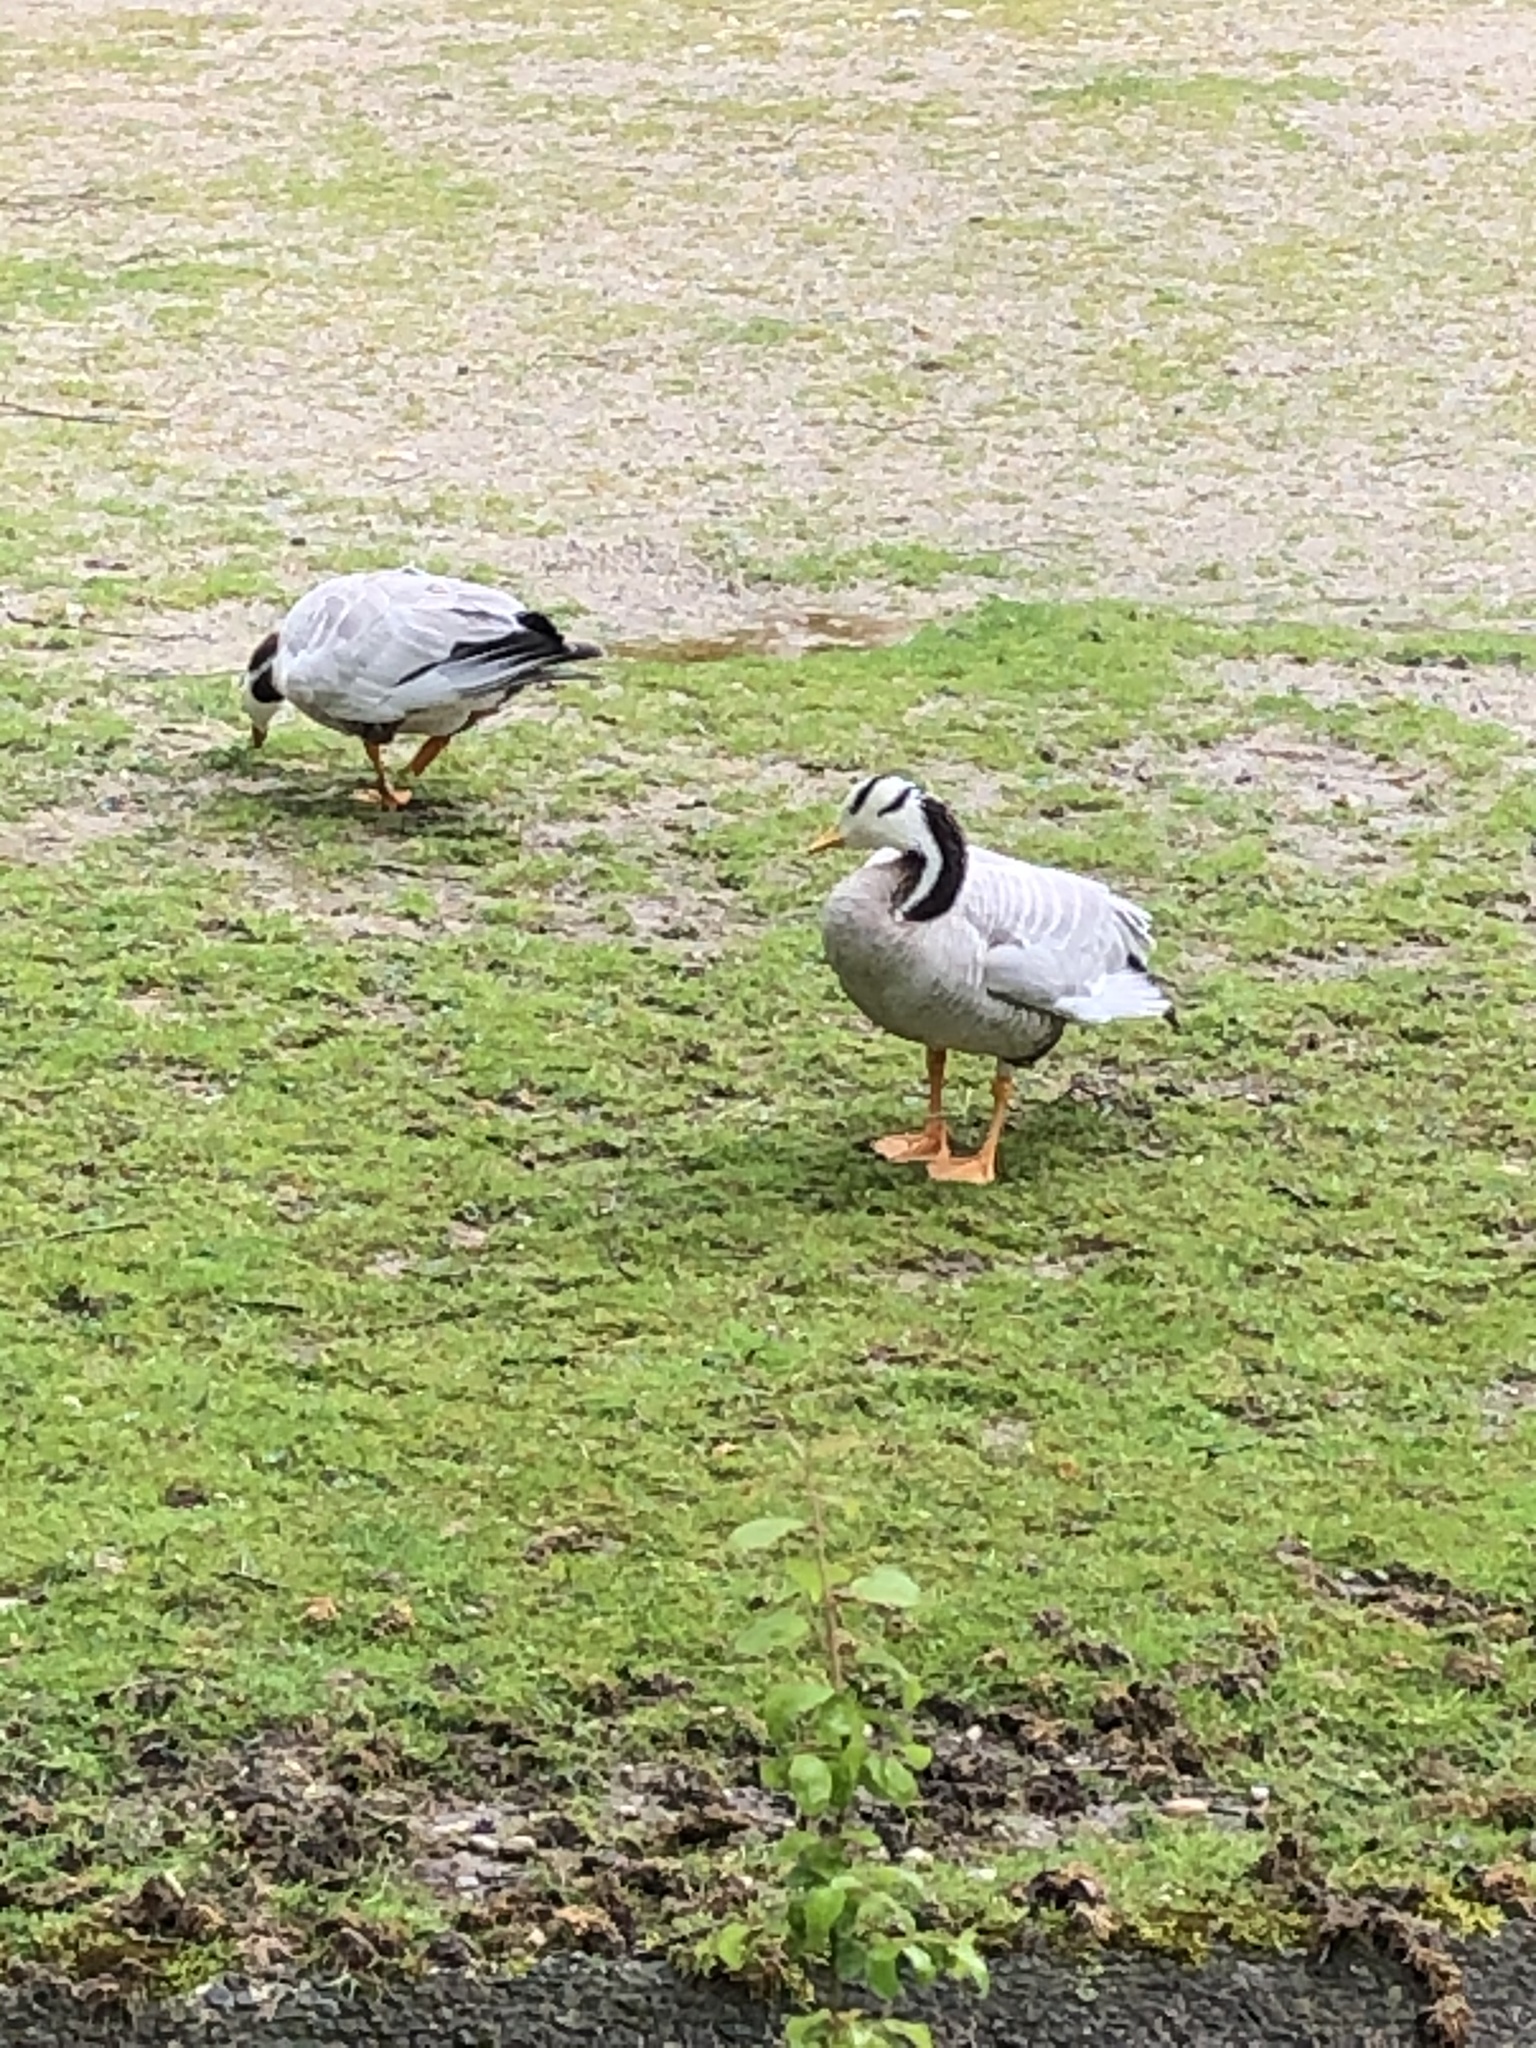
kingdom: Animalia
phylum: Chordata
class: Aves
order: Anseriformes
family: Anatidae
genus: Anser
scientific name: Anser indicus
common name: Bar-headed goose
